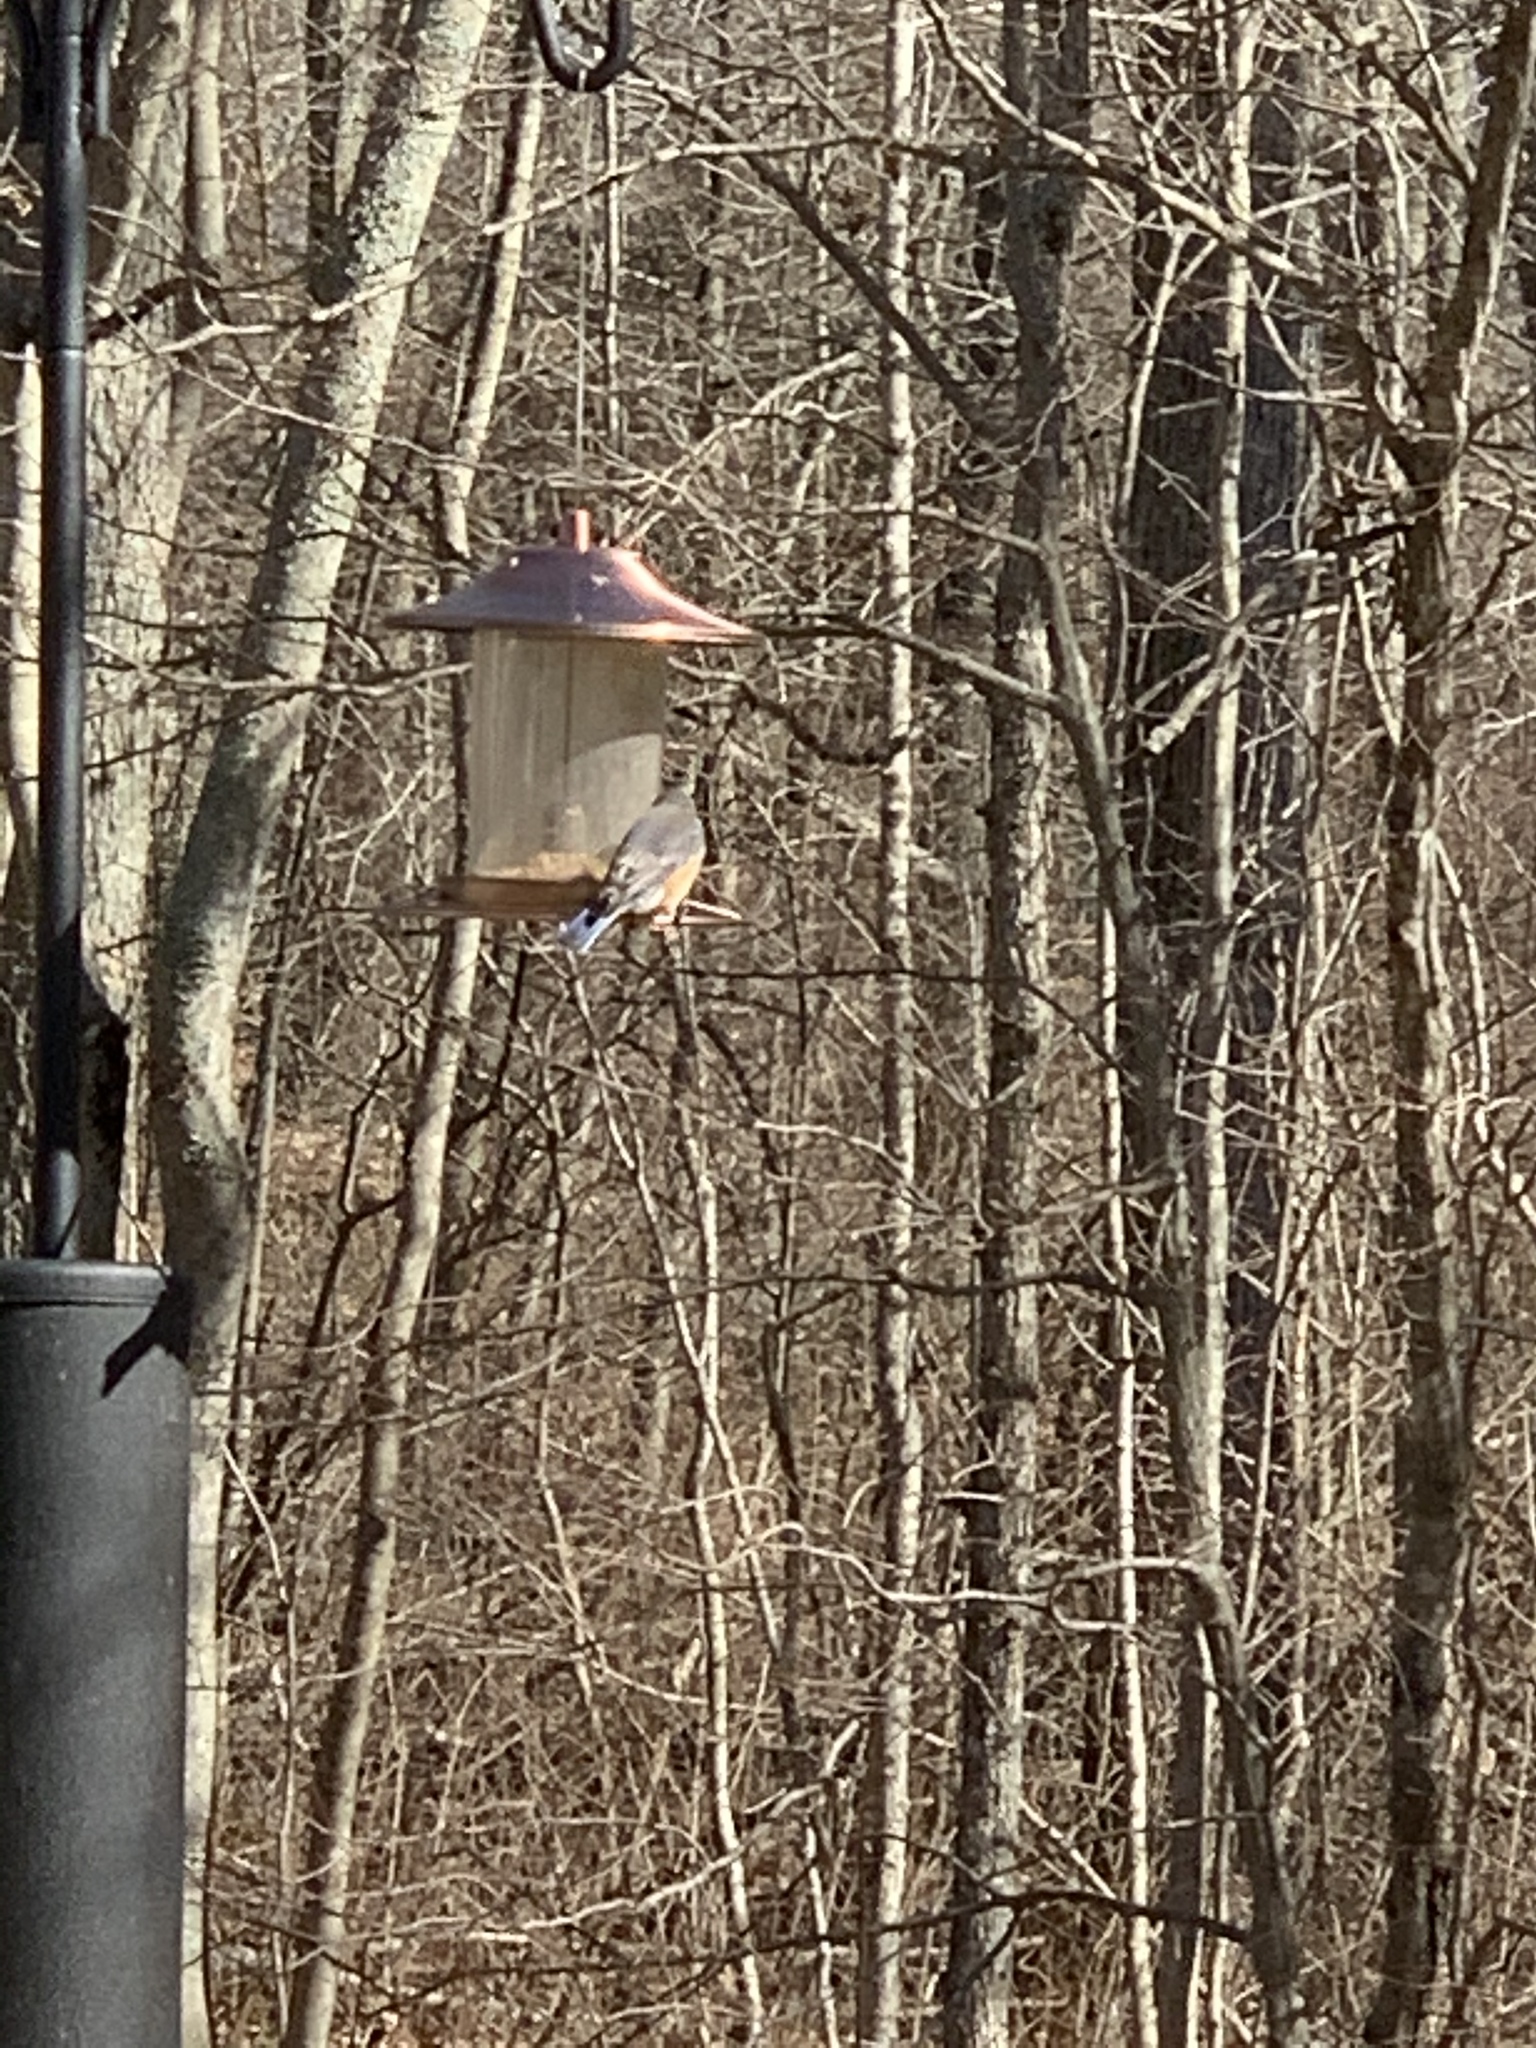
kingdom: Animalia
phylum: Chordata
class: Aves
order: Passeriformes
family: Turdidae
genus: Sialia
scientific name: Sialia sialis
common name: Eastern bluebird
